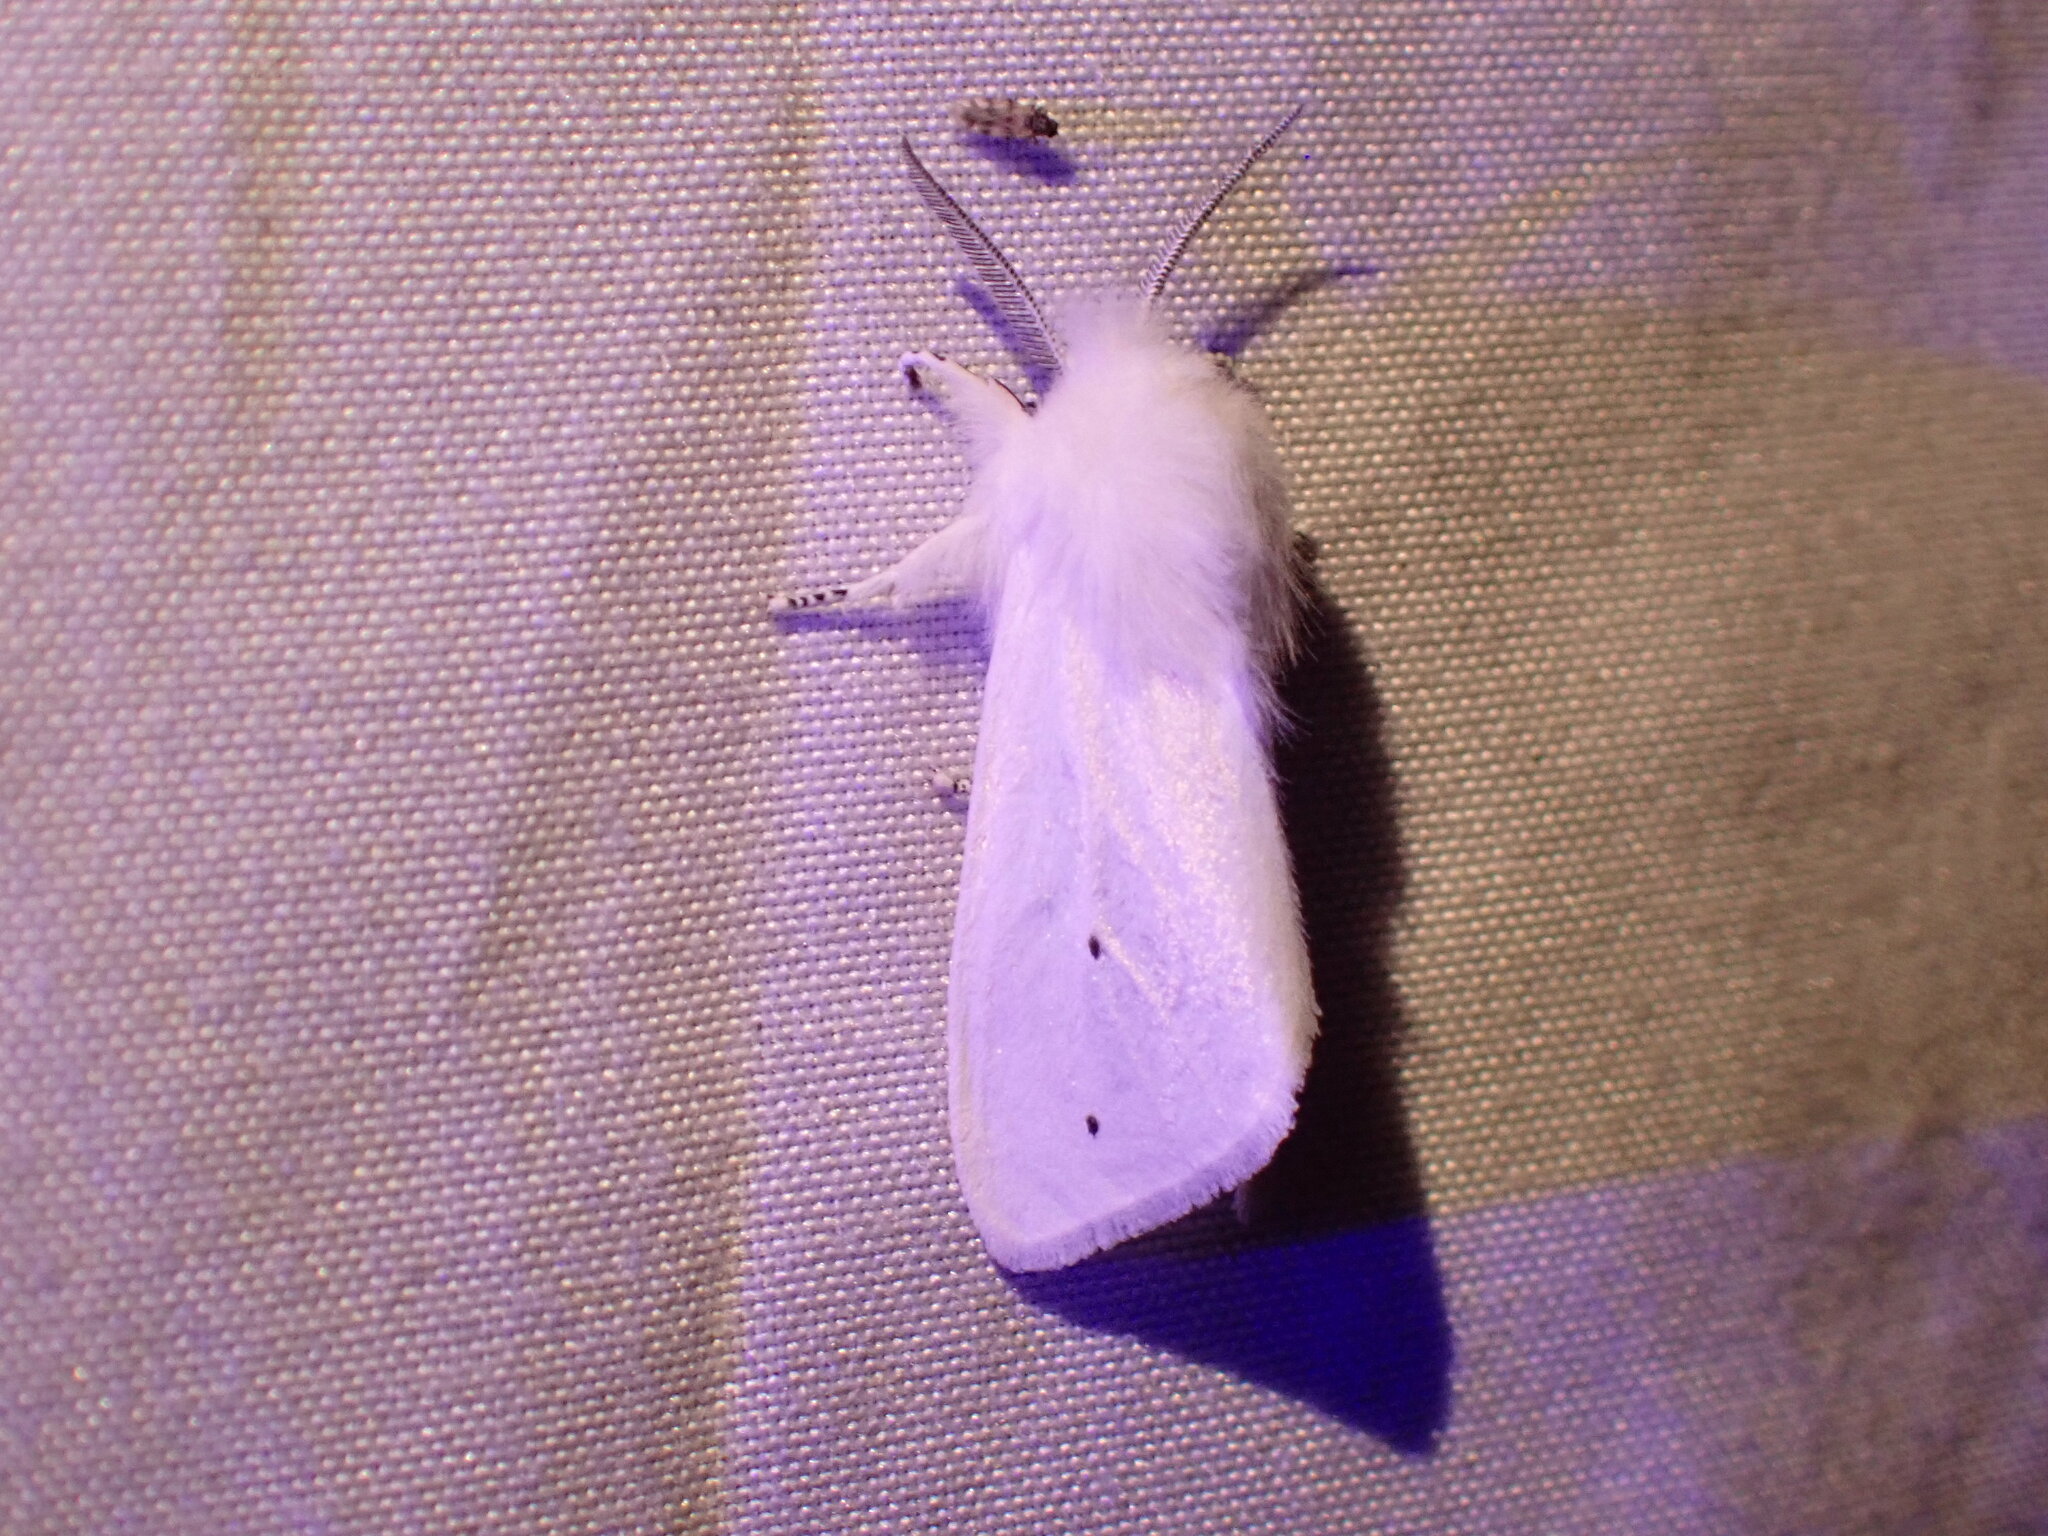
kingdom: Animalia
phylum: Arthropoda
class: Insecta
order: Lepidoptera
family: Erebidae
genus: Spilosoma
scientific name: Spilosoma virginica
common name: Virginia tiger moth
